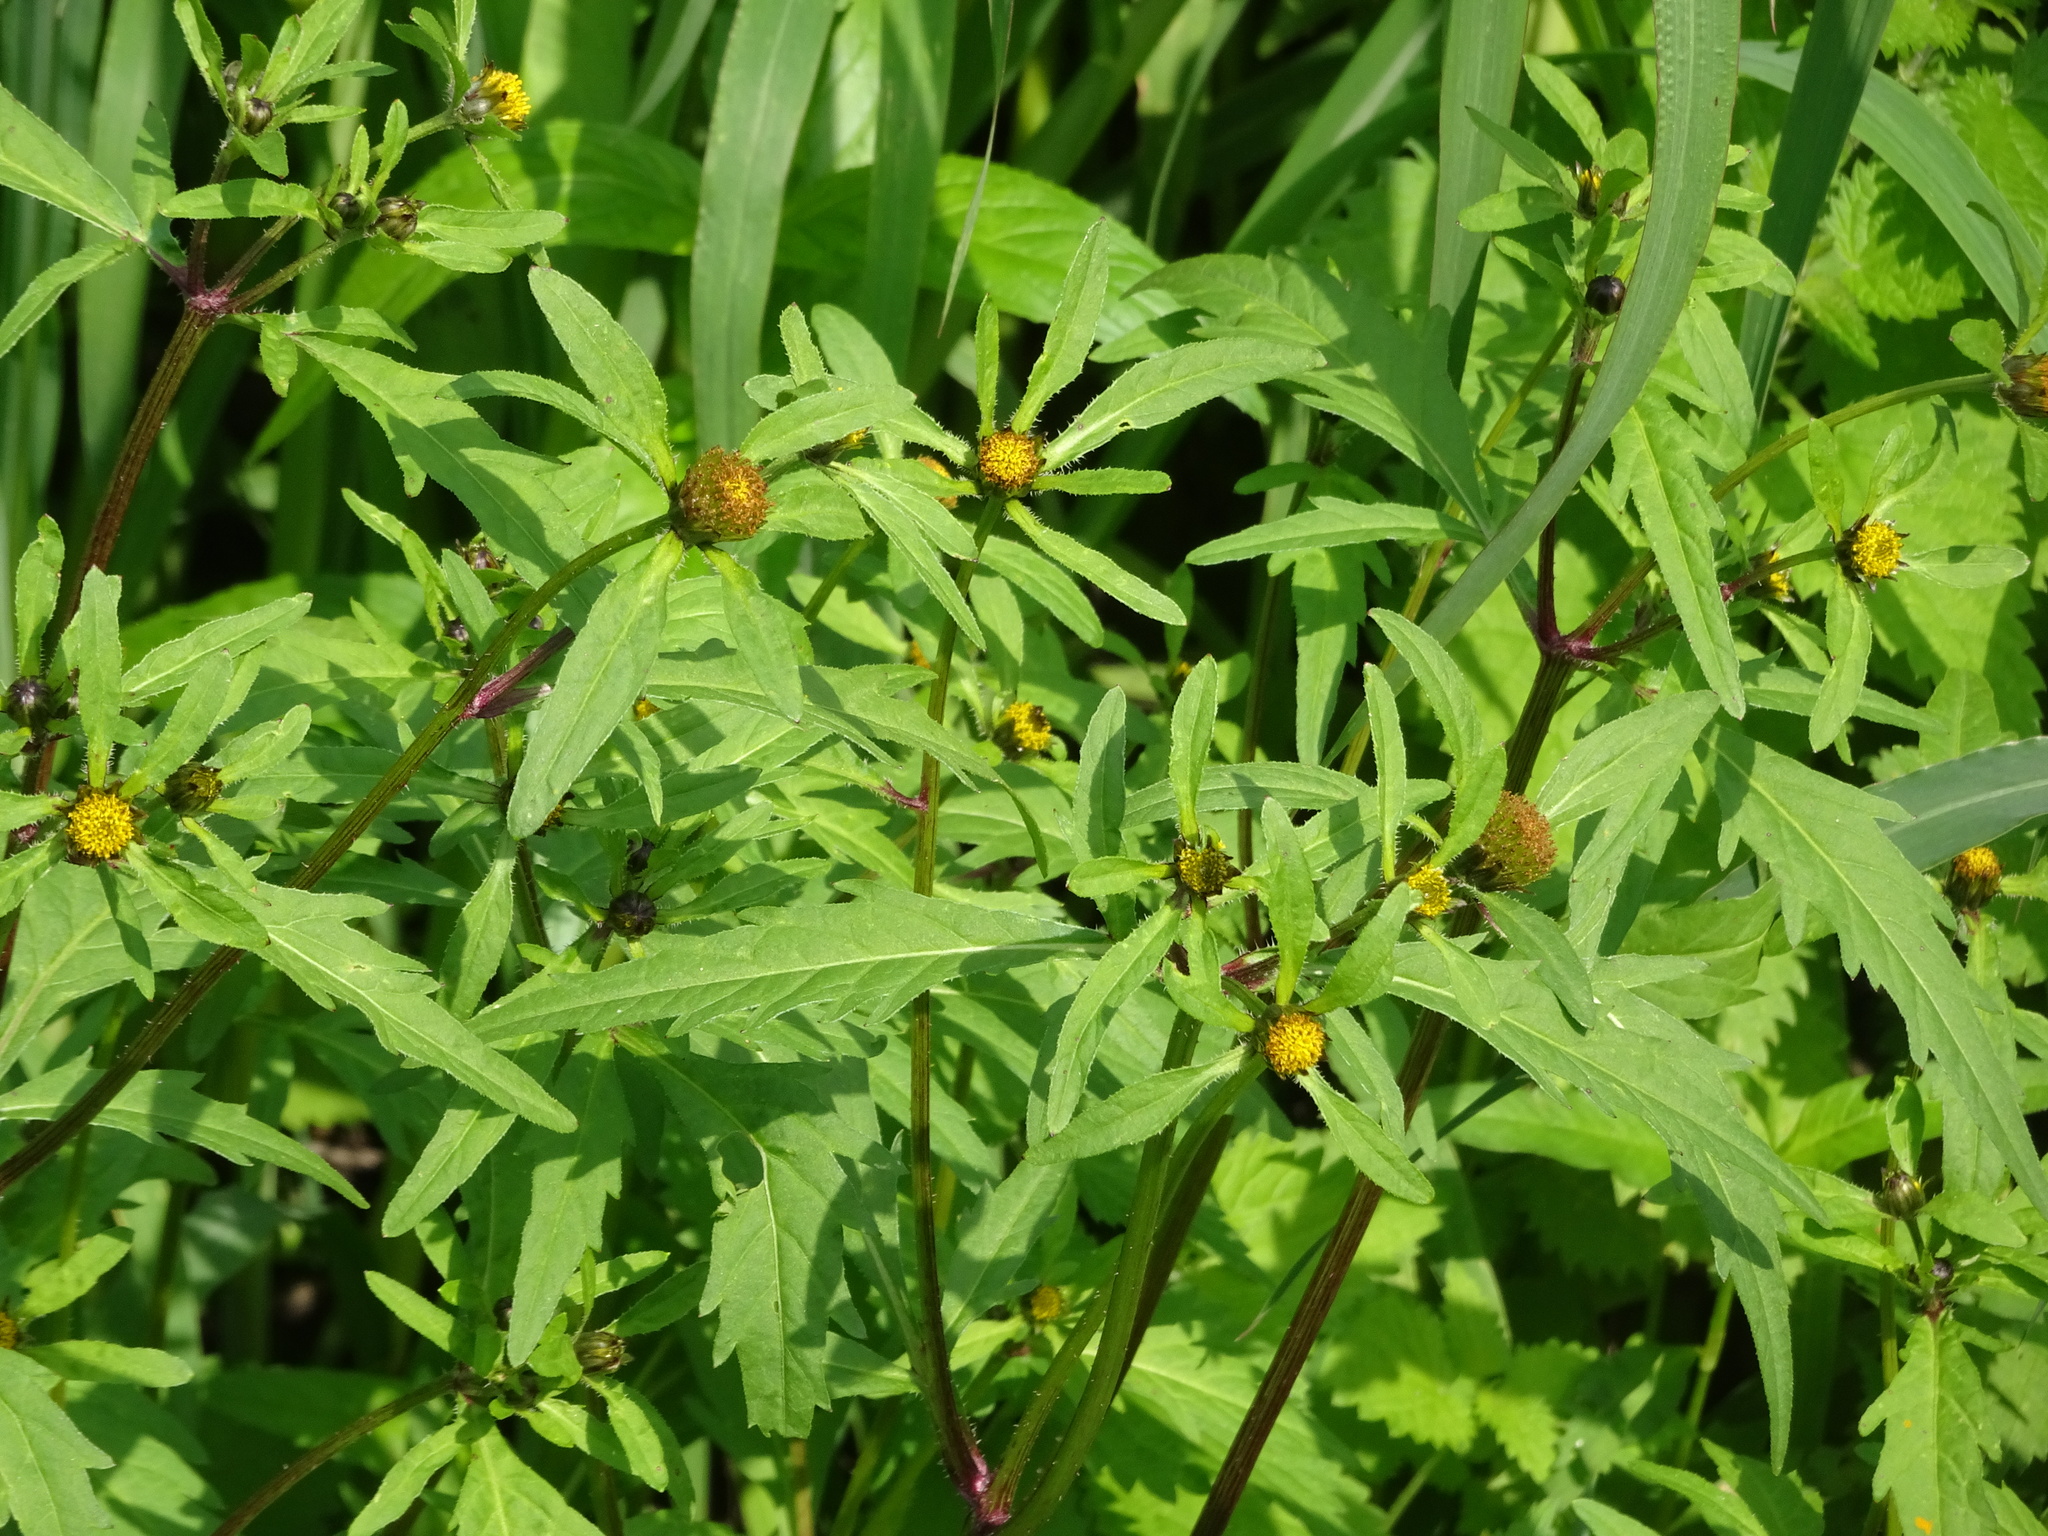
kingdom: Plantae
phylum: Tracheophyta
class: Magnoliopsida
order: Asterales
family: Asteraceae
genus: Bidens
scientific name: Bidens tripartita
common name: Trifid bur-marigold
